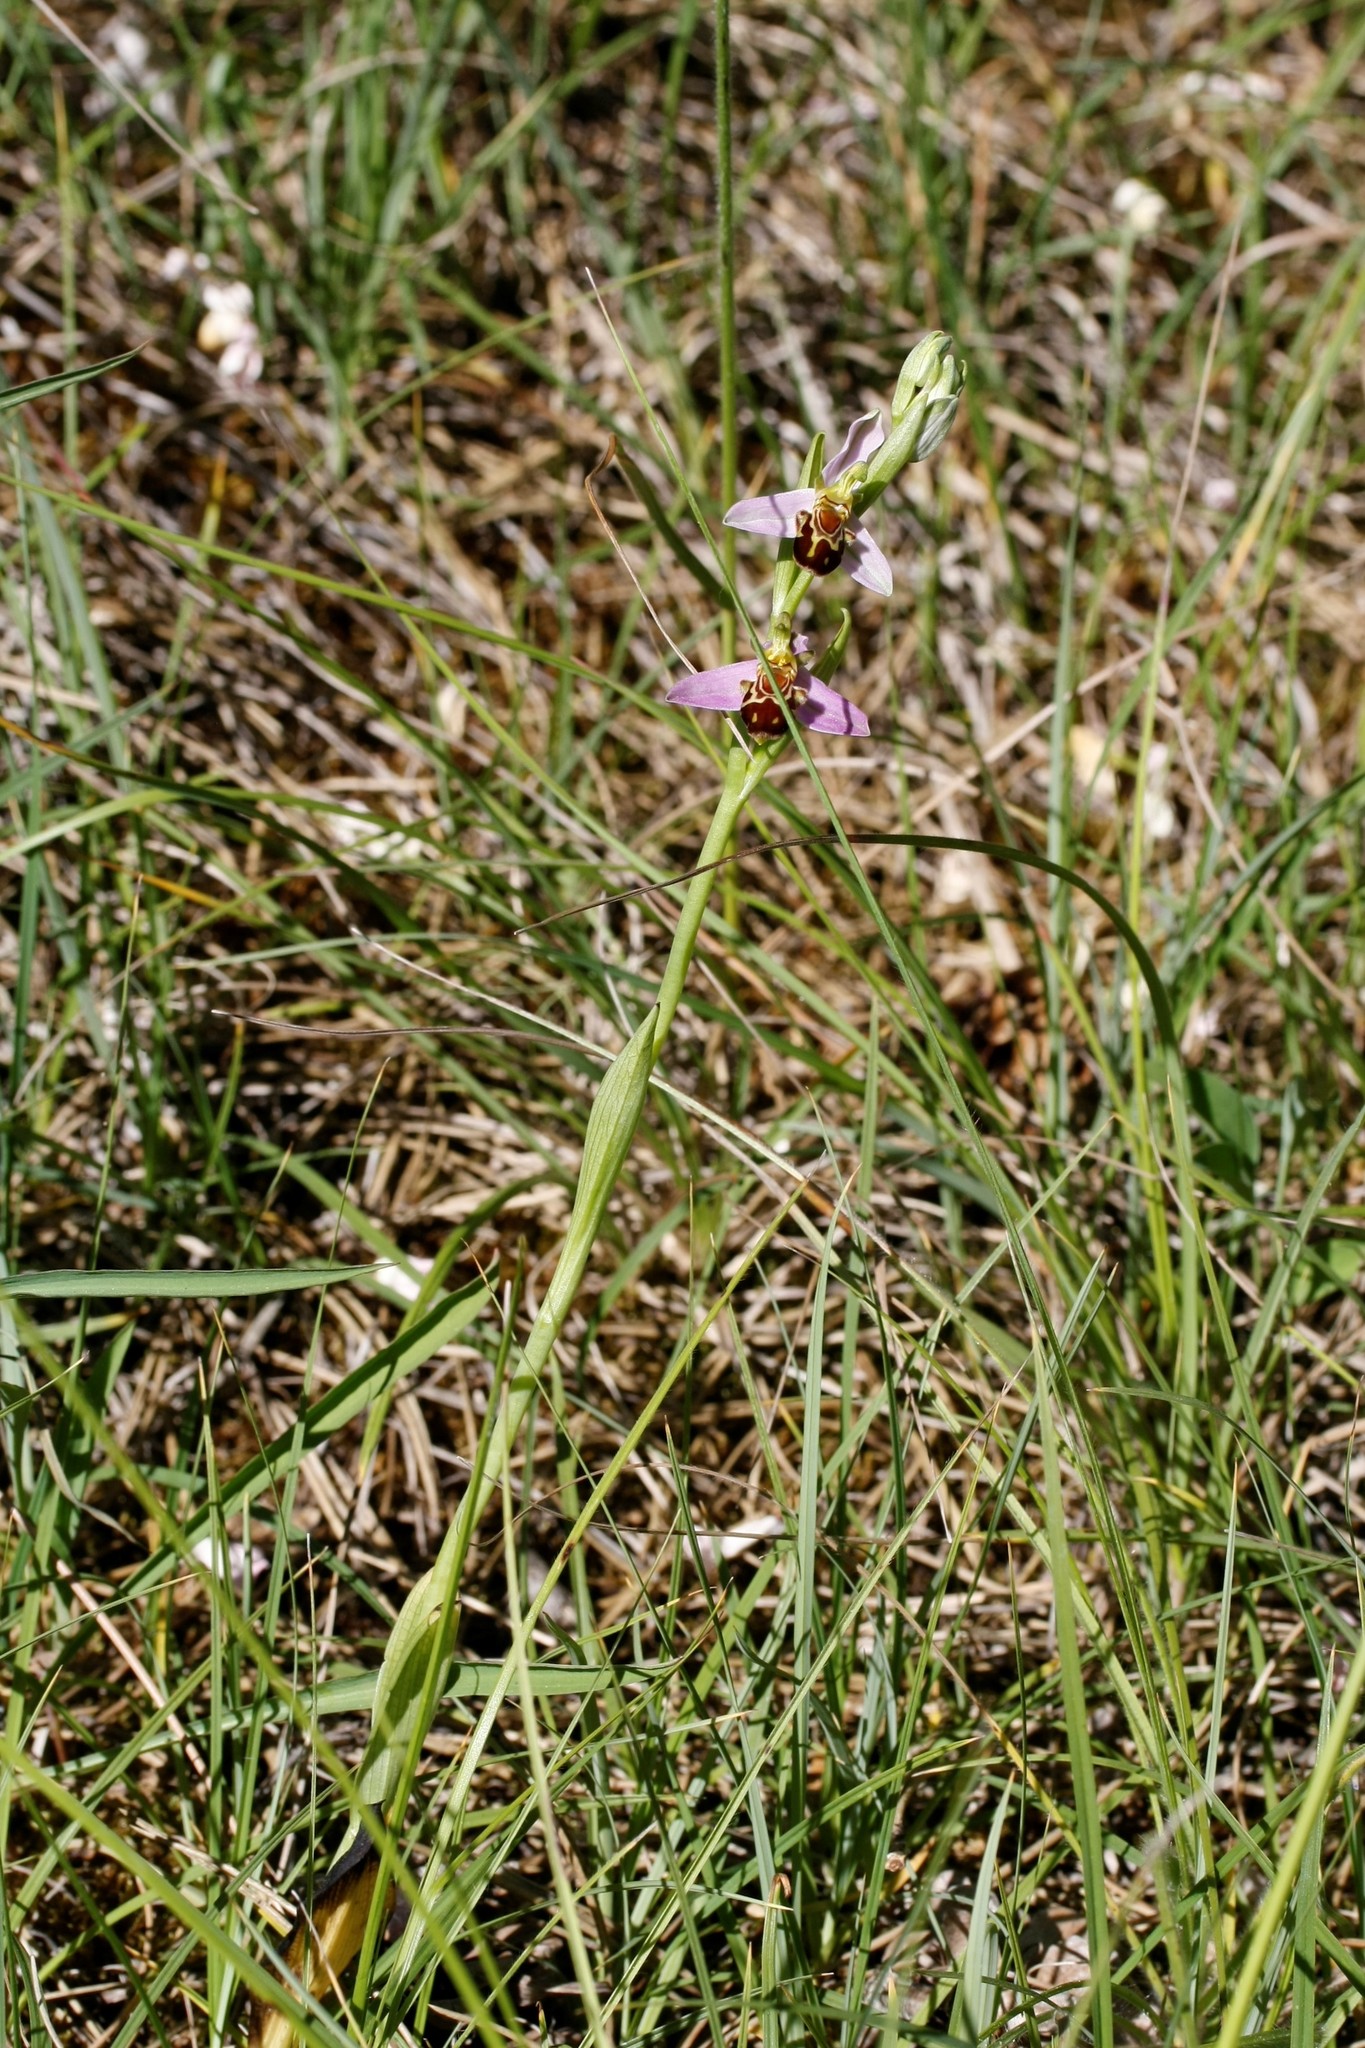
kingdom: Plantae
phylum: Tracheophyta
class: Liliopsida
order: Asparagales
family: Orchidaceae
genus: Ophrys
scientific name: Ophrys apifera
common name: Bee orchid
